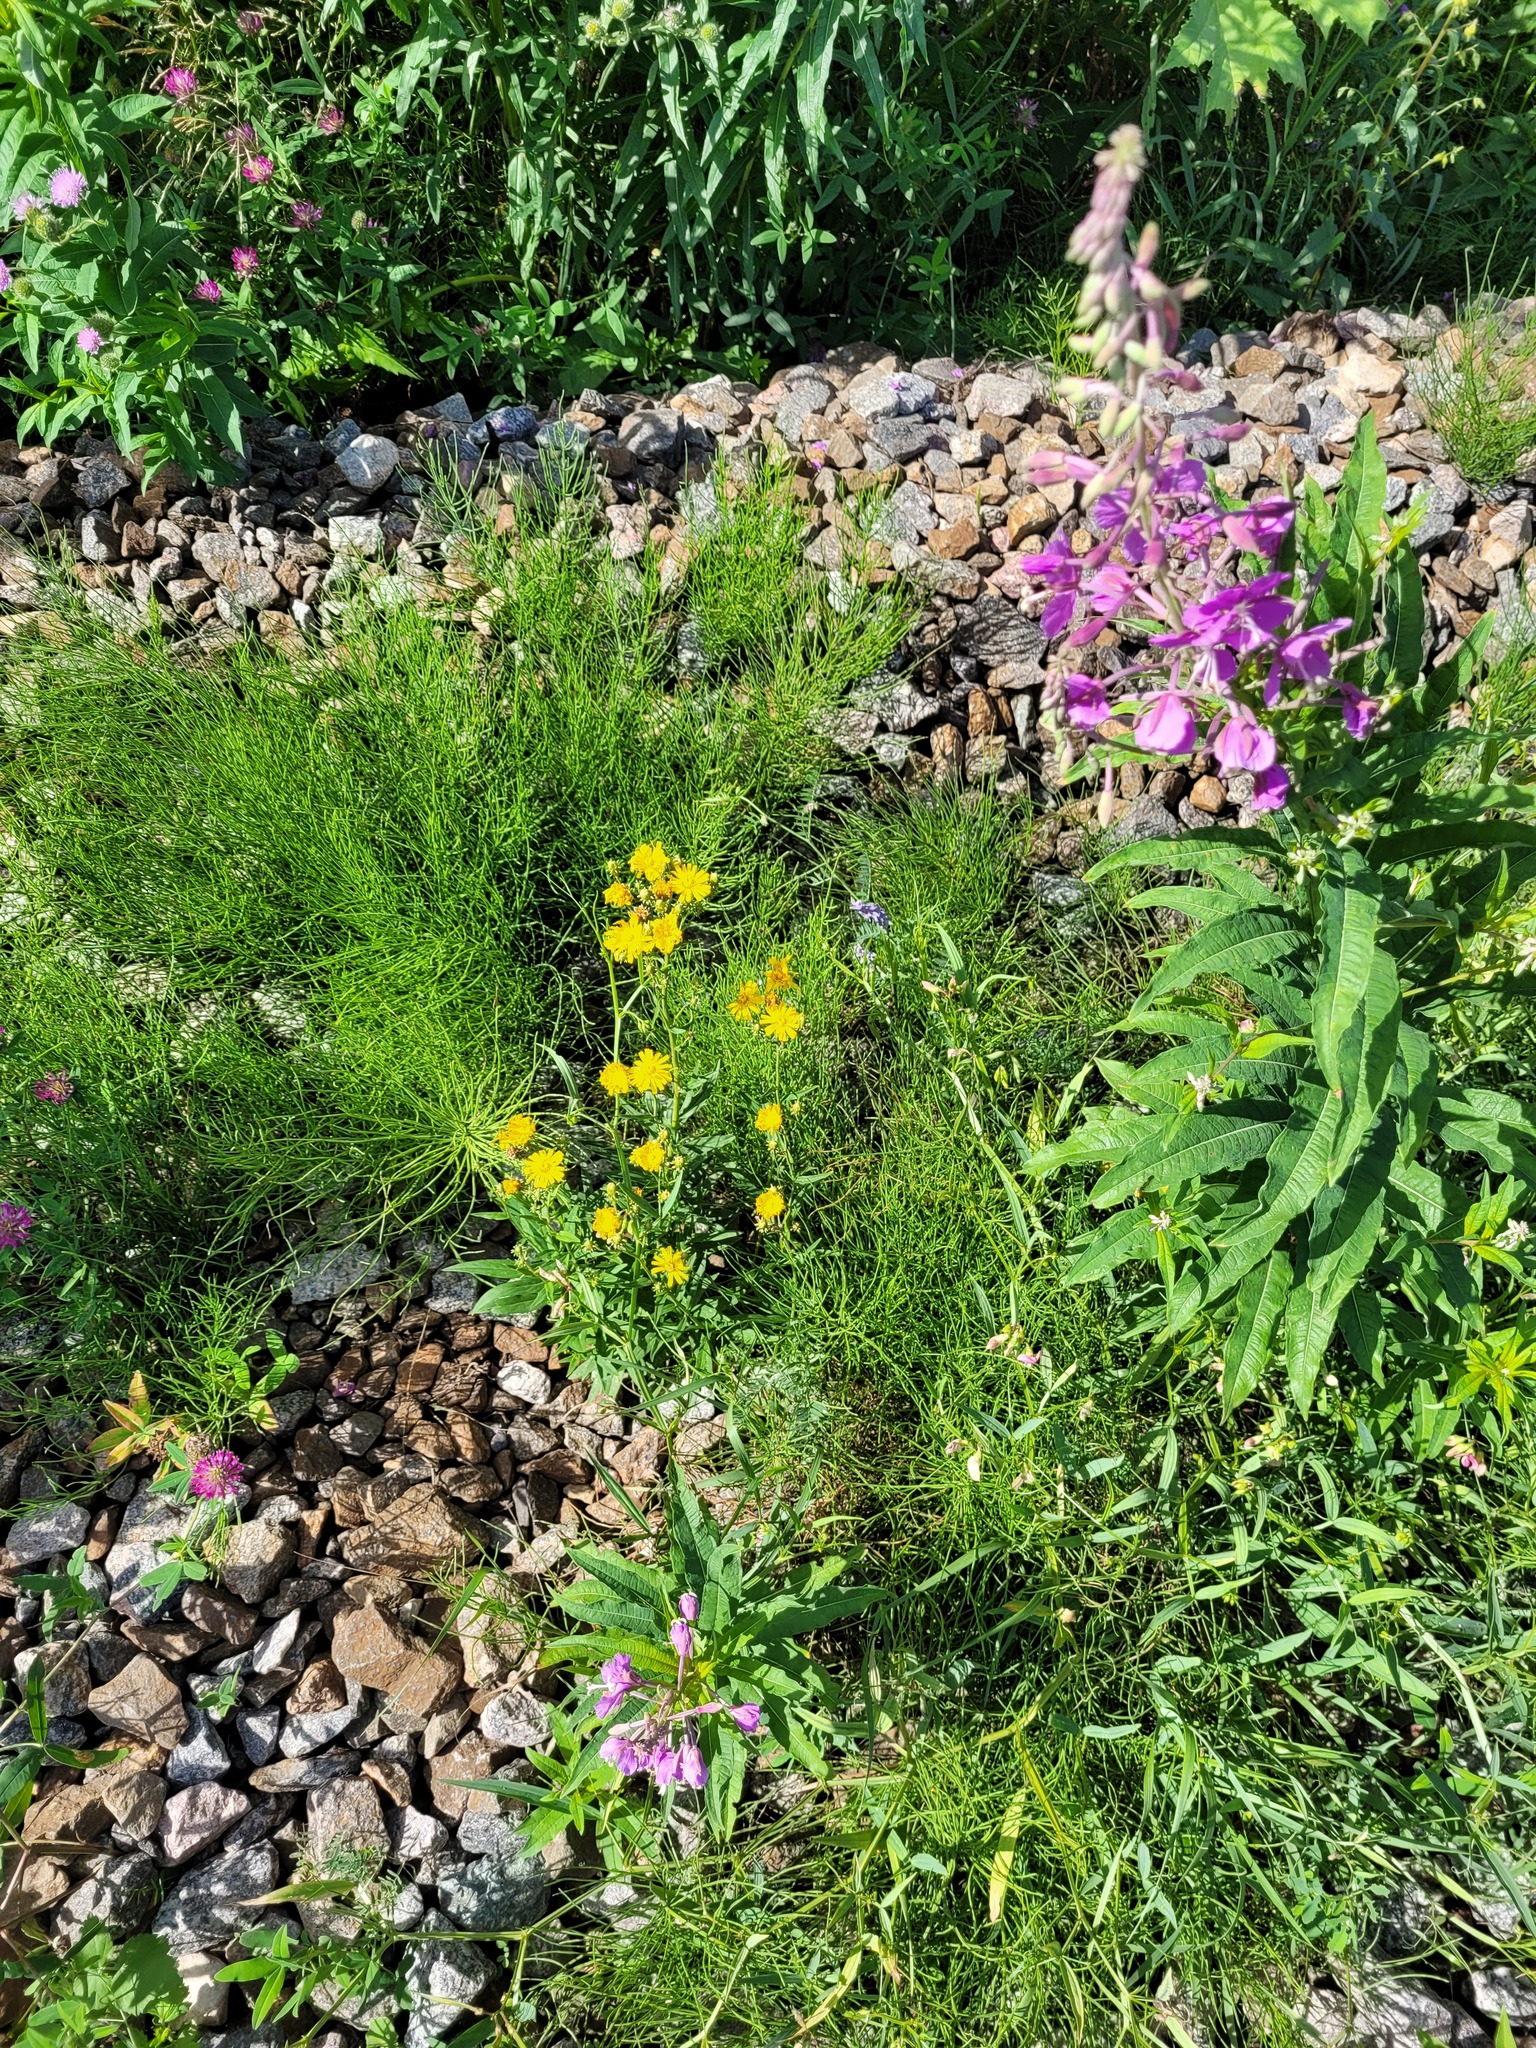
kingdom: Plantae
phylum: Tracheophyta
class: Magnoliopsida
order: Asterales
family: Asteraceae
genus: Hieracium
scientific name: Hieracium umbellatum
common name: Northern hawkweed
